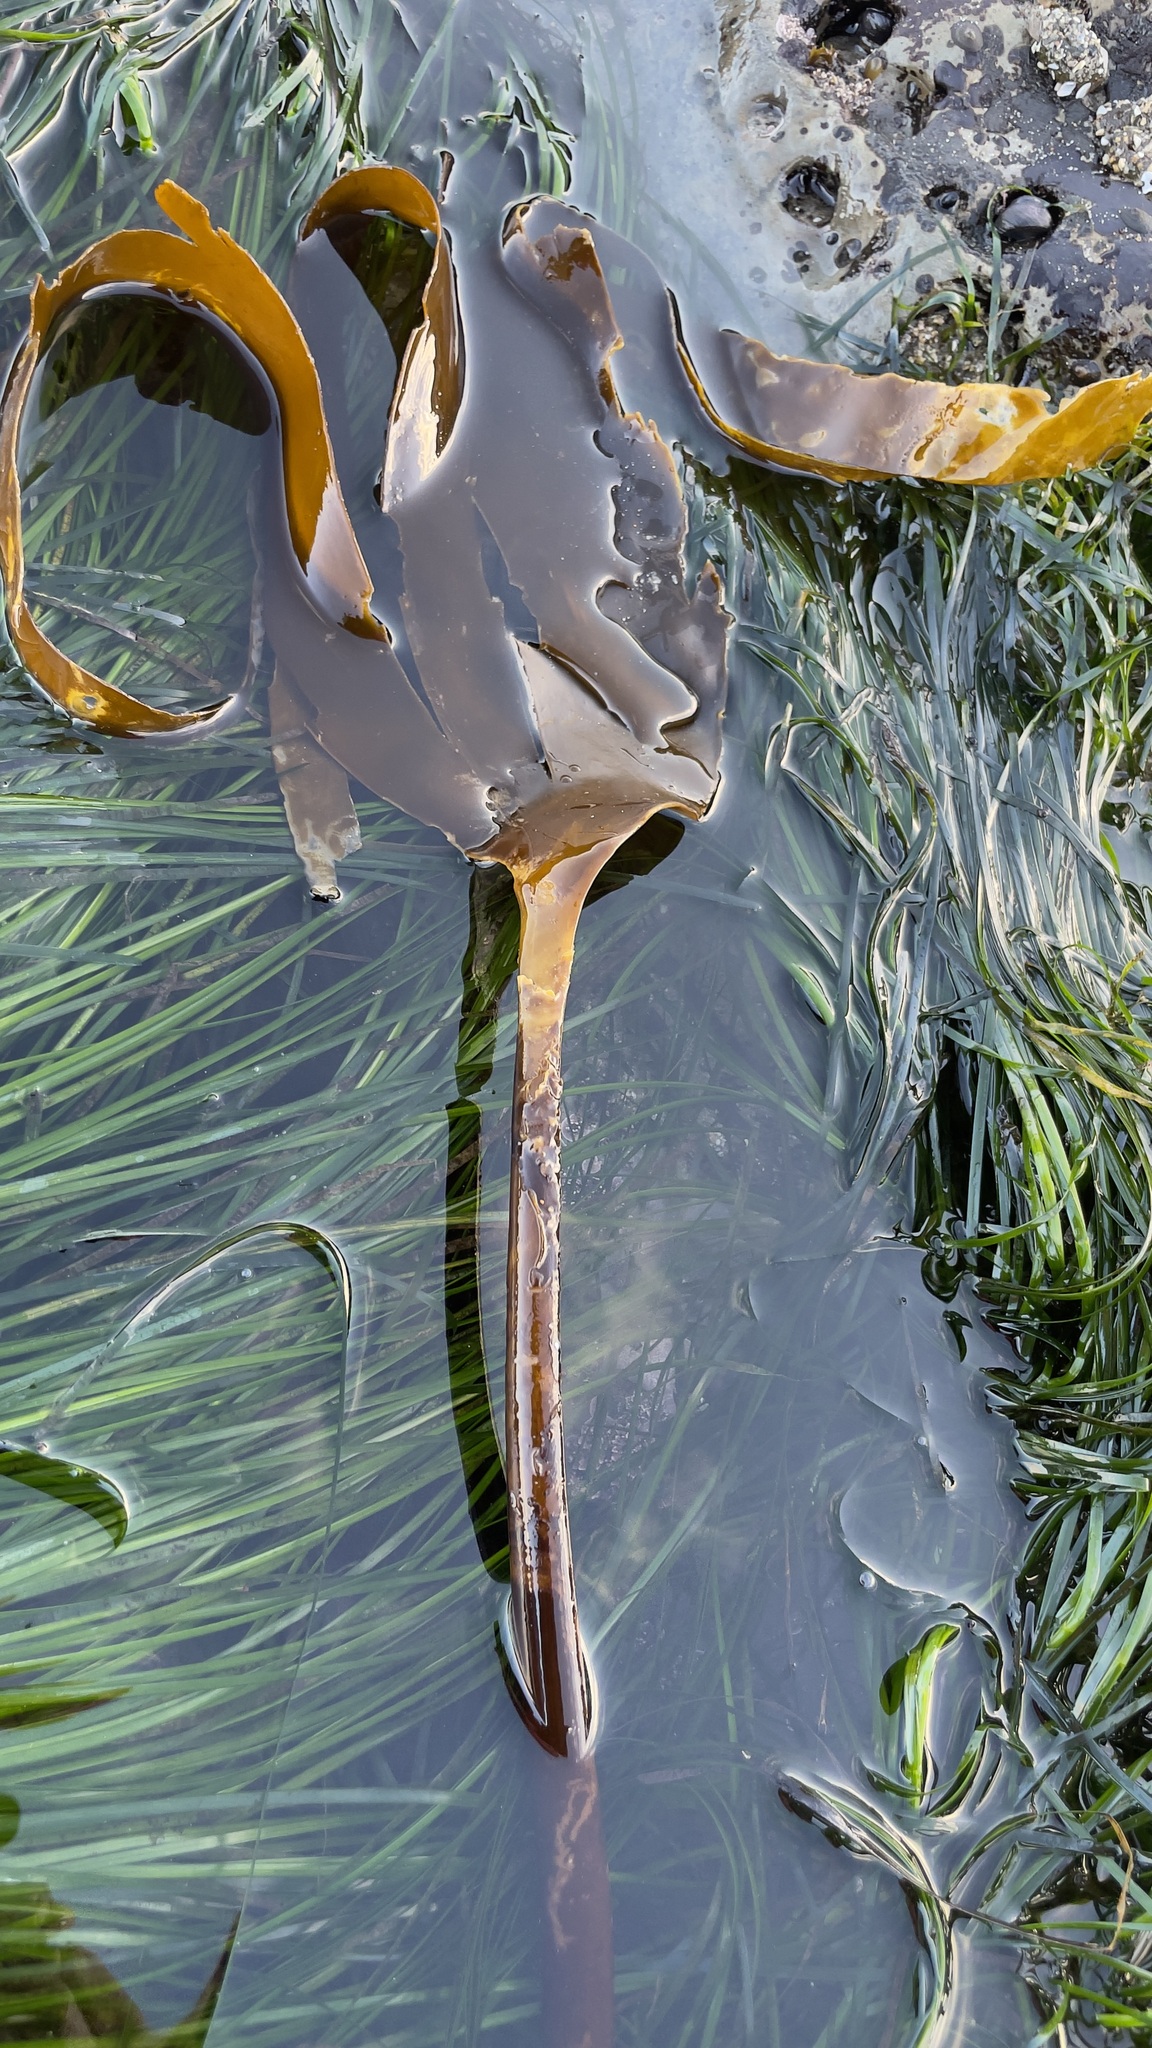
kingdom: Chromista
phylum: Ochrophyta
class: Phaeophyceae
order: Laminariales
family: Laminariaceae
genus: Laminaria
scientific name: Laminaria setchellii
